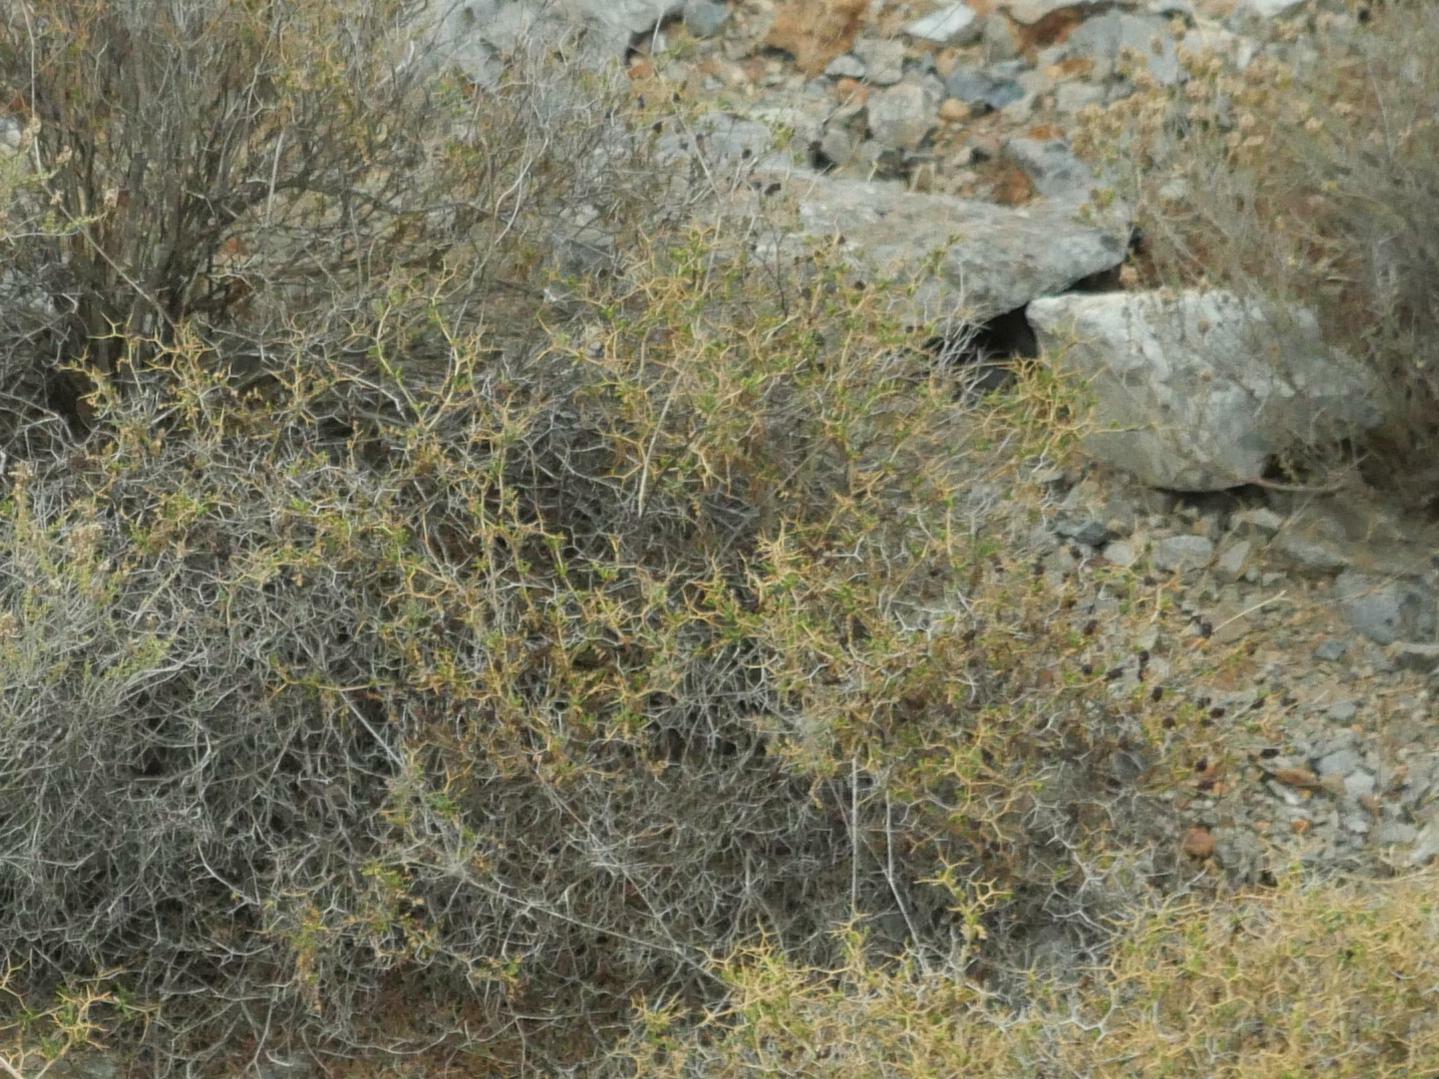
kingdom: Plantae
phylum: Tracheophyta
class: Magnoliopsida
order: Rosales
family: Rosaceae
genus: Sarcopoterium
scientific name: Sarcopoterium spinosum
